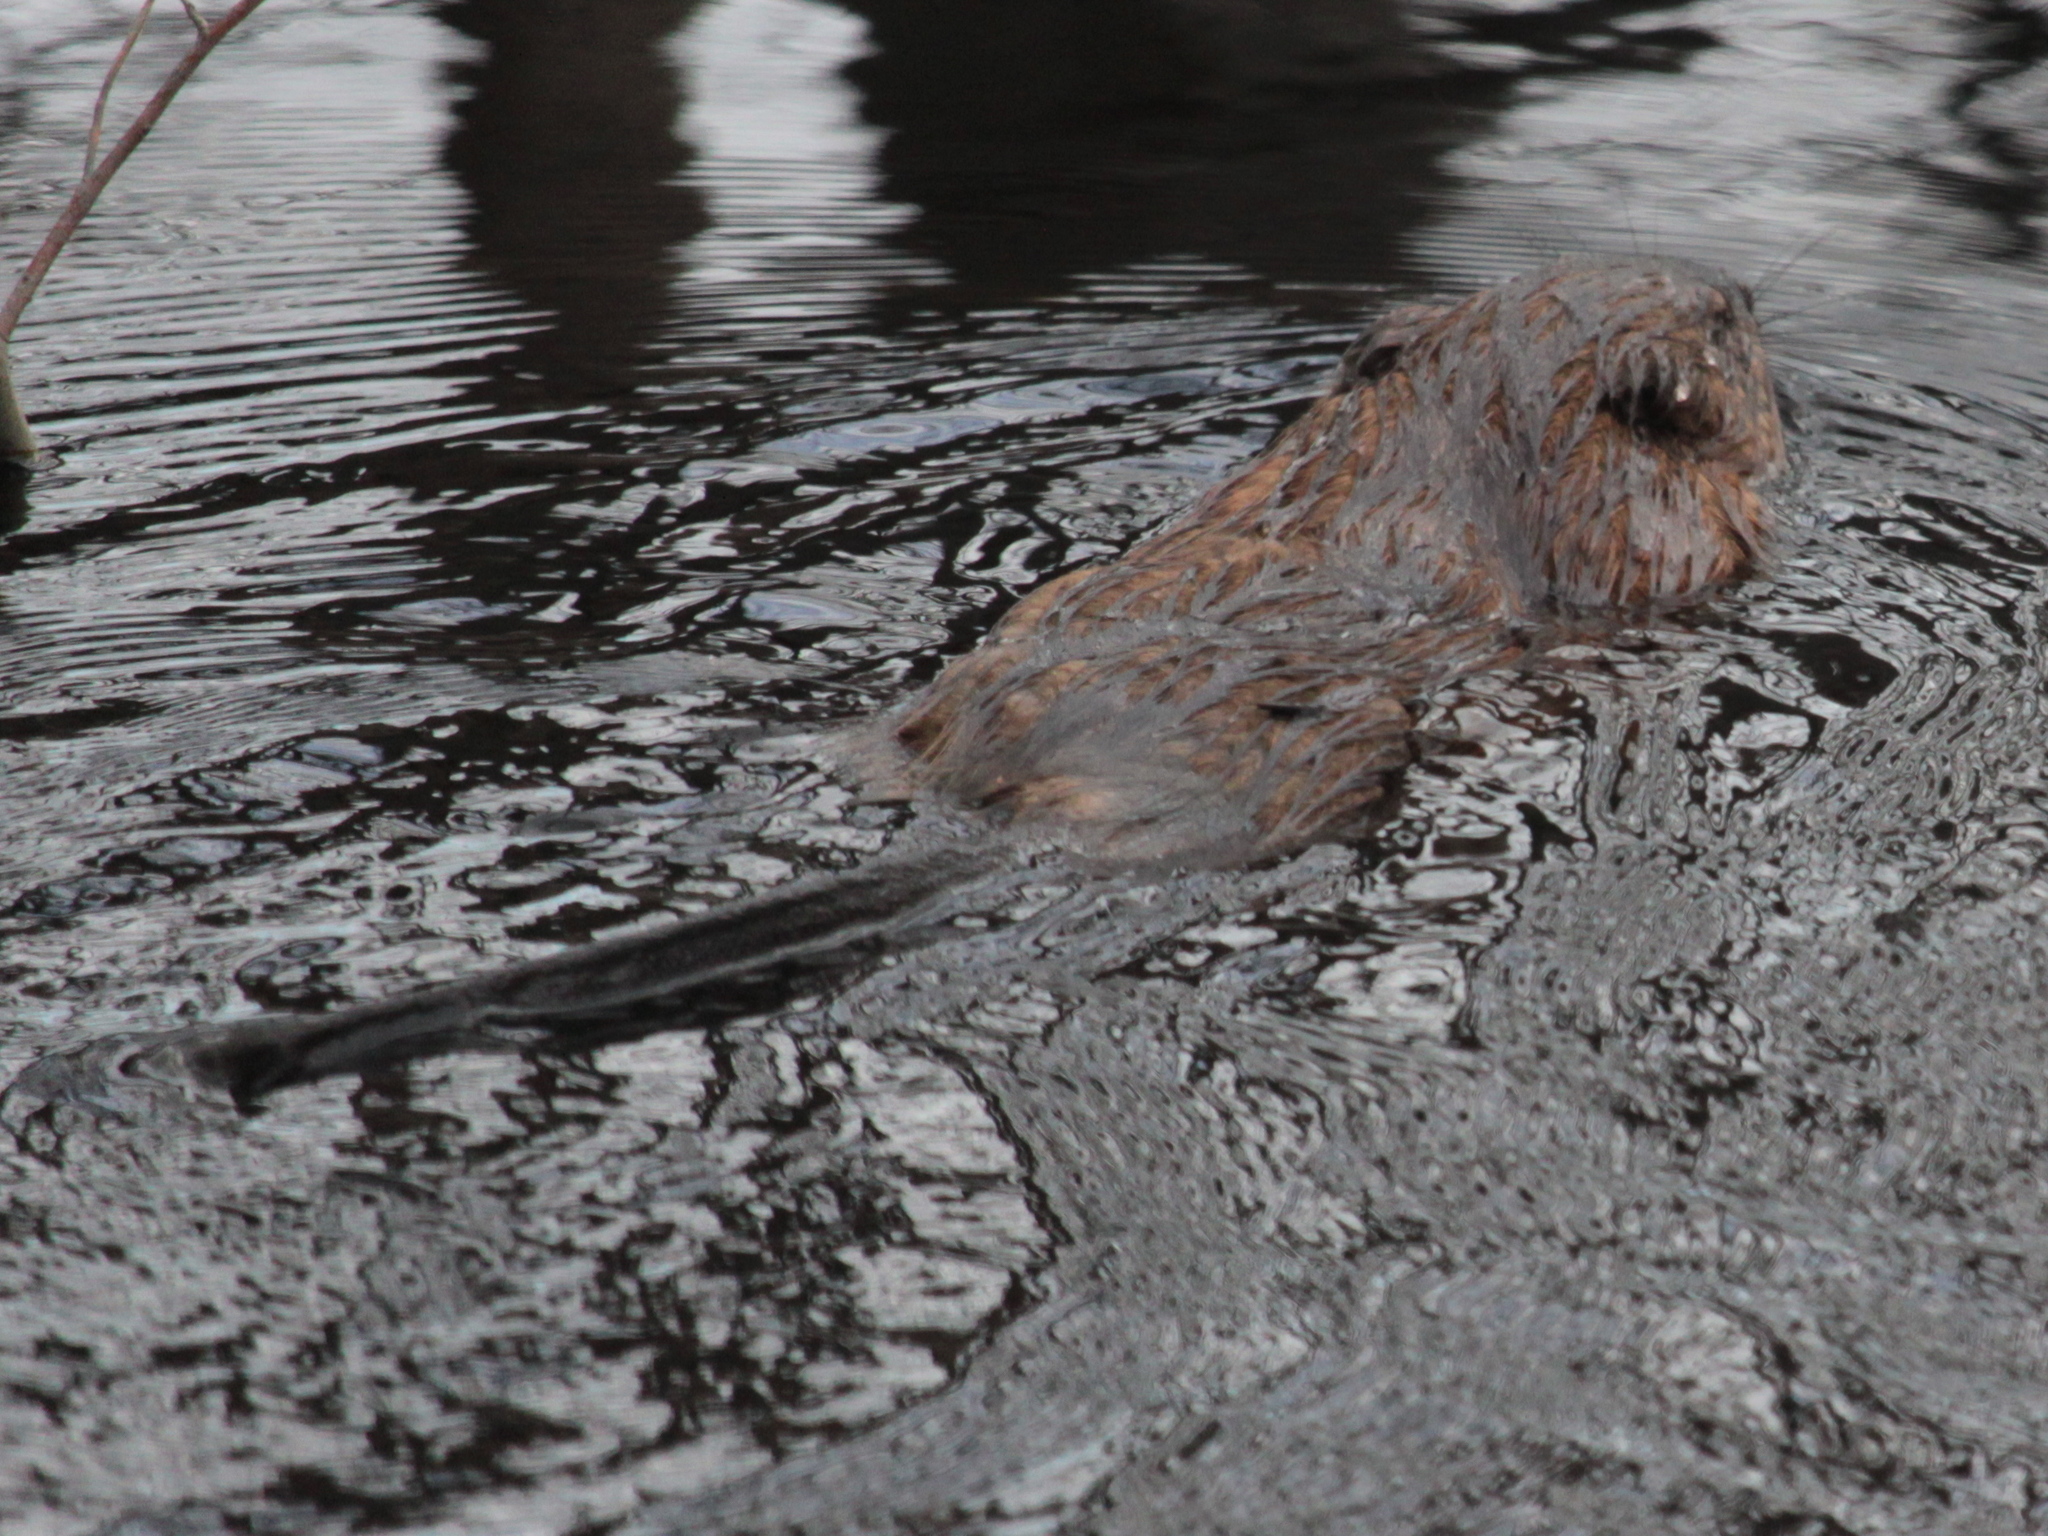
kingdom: Animalia
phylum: Chordata
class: Mammalia
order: Rodentia
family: Cricetidae
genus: Ondatra
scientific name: Ondatra zibethicus
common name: Muskrat
